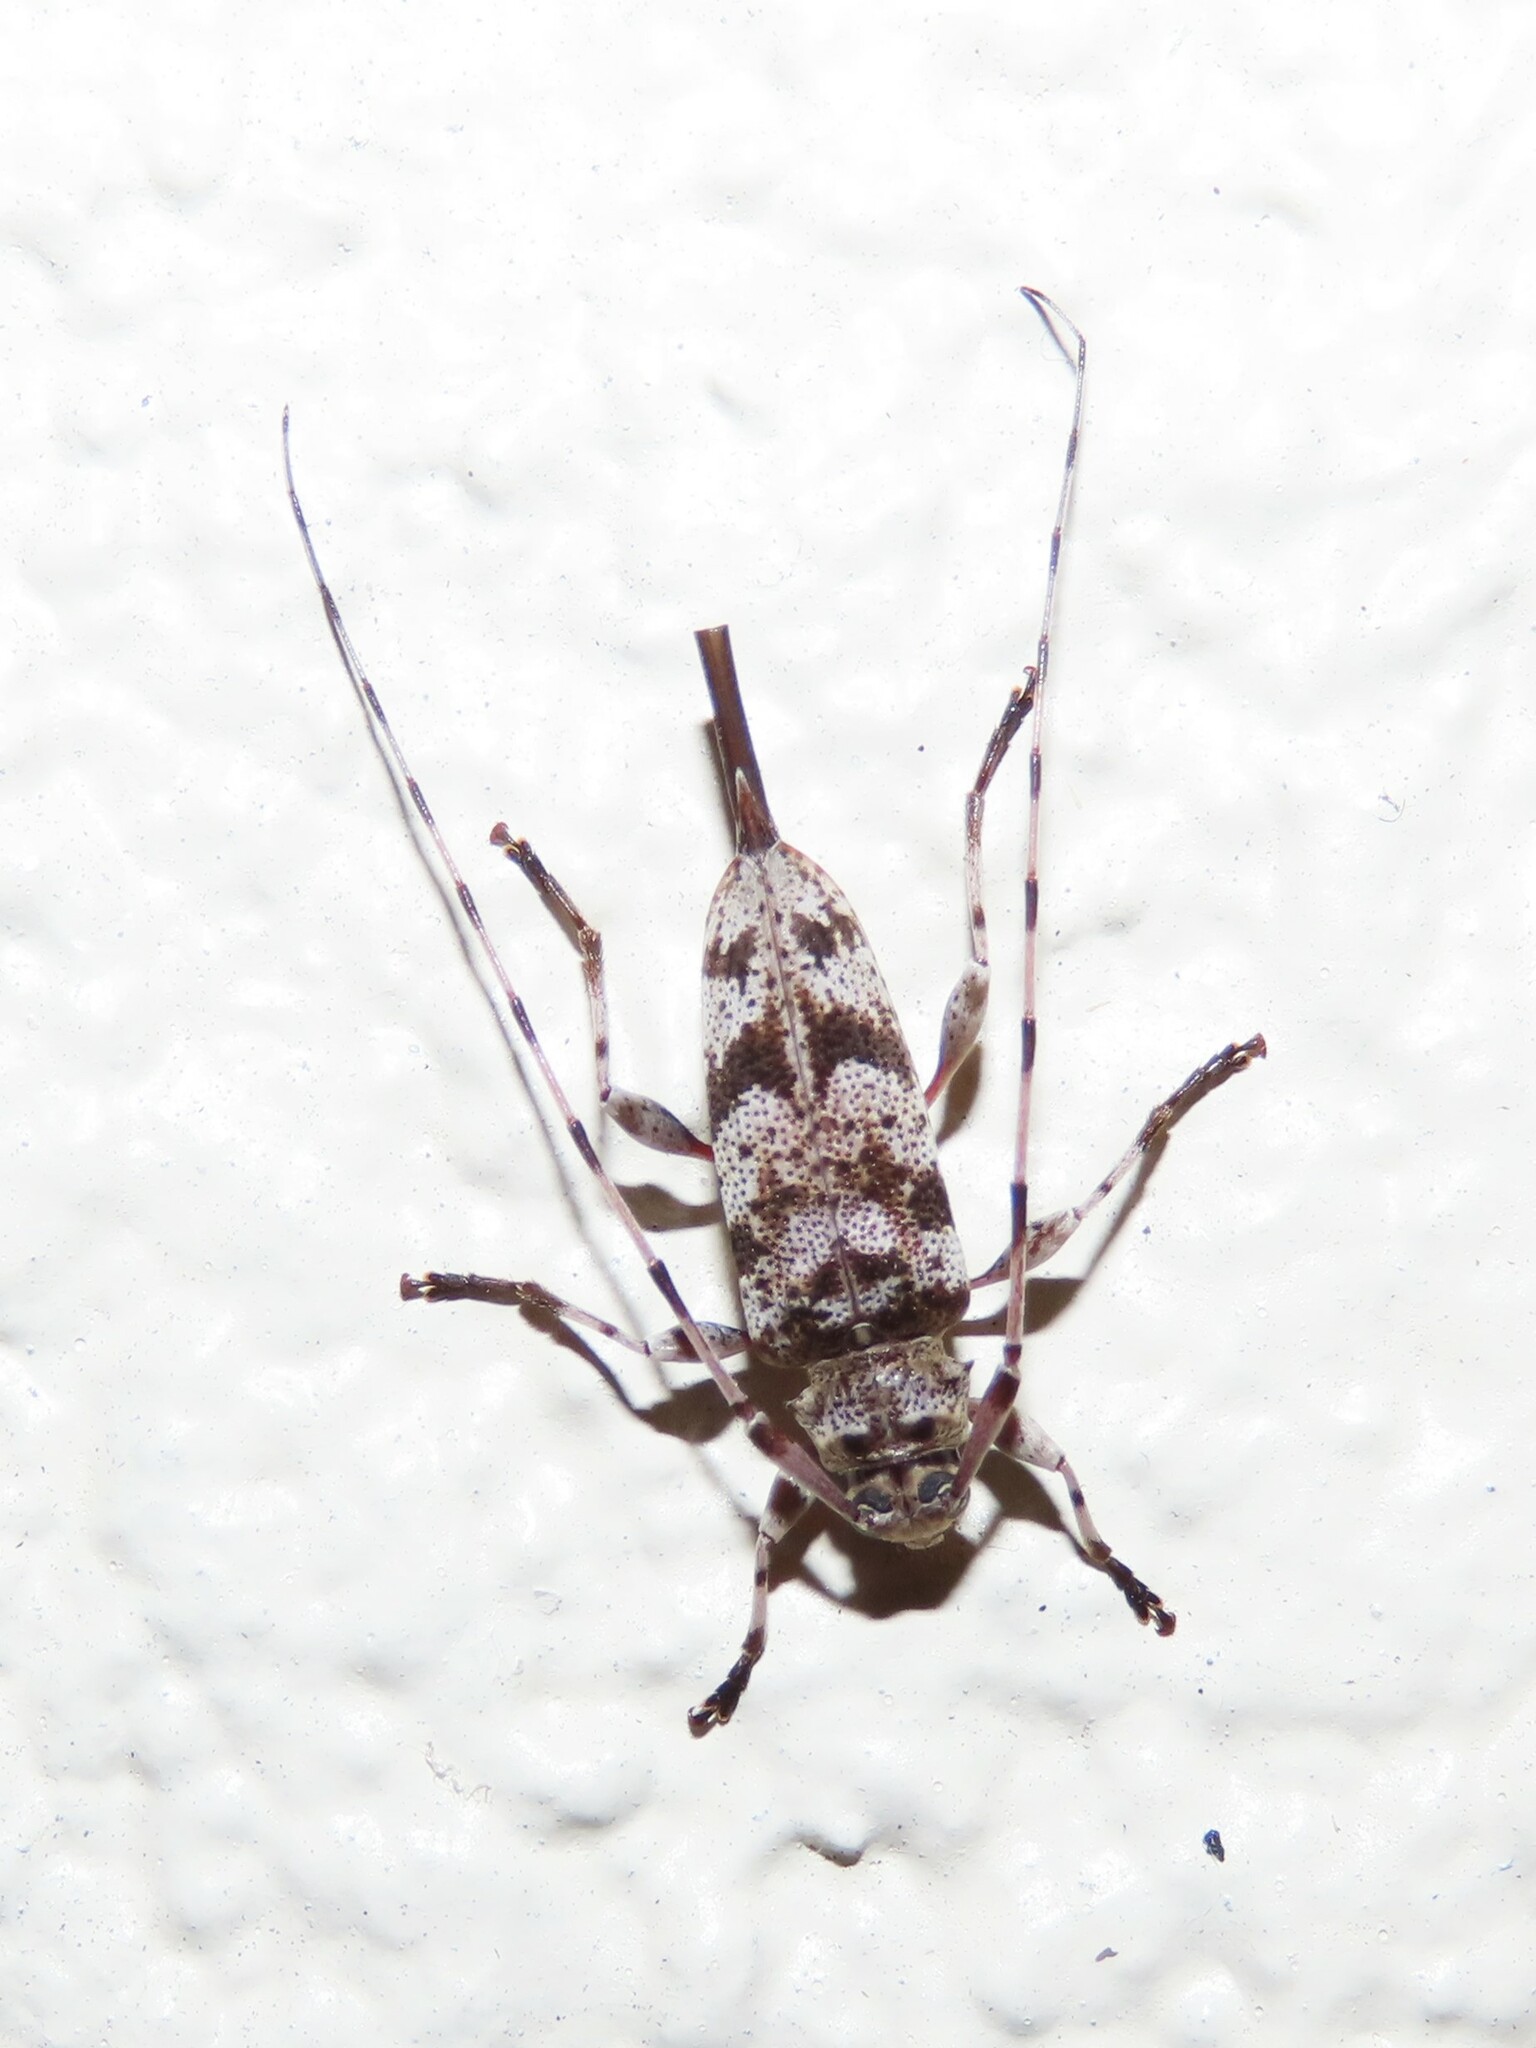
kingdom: Animalia
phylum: Arthropoda
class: Insecta
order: Coleoptera
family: Cerambycidae
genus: Acanthocinus
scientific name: Acanthocinus obsoletus
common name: Roundheaded borer
